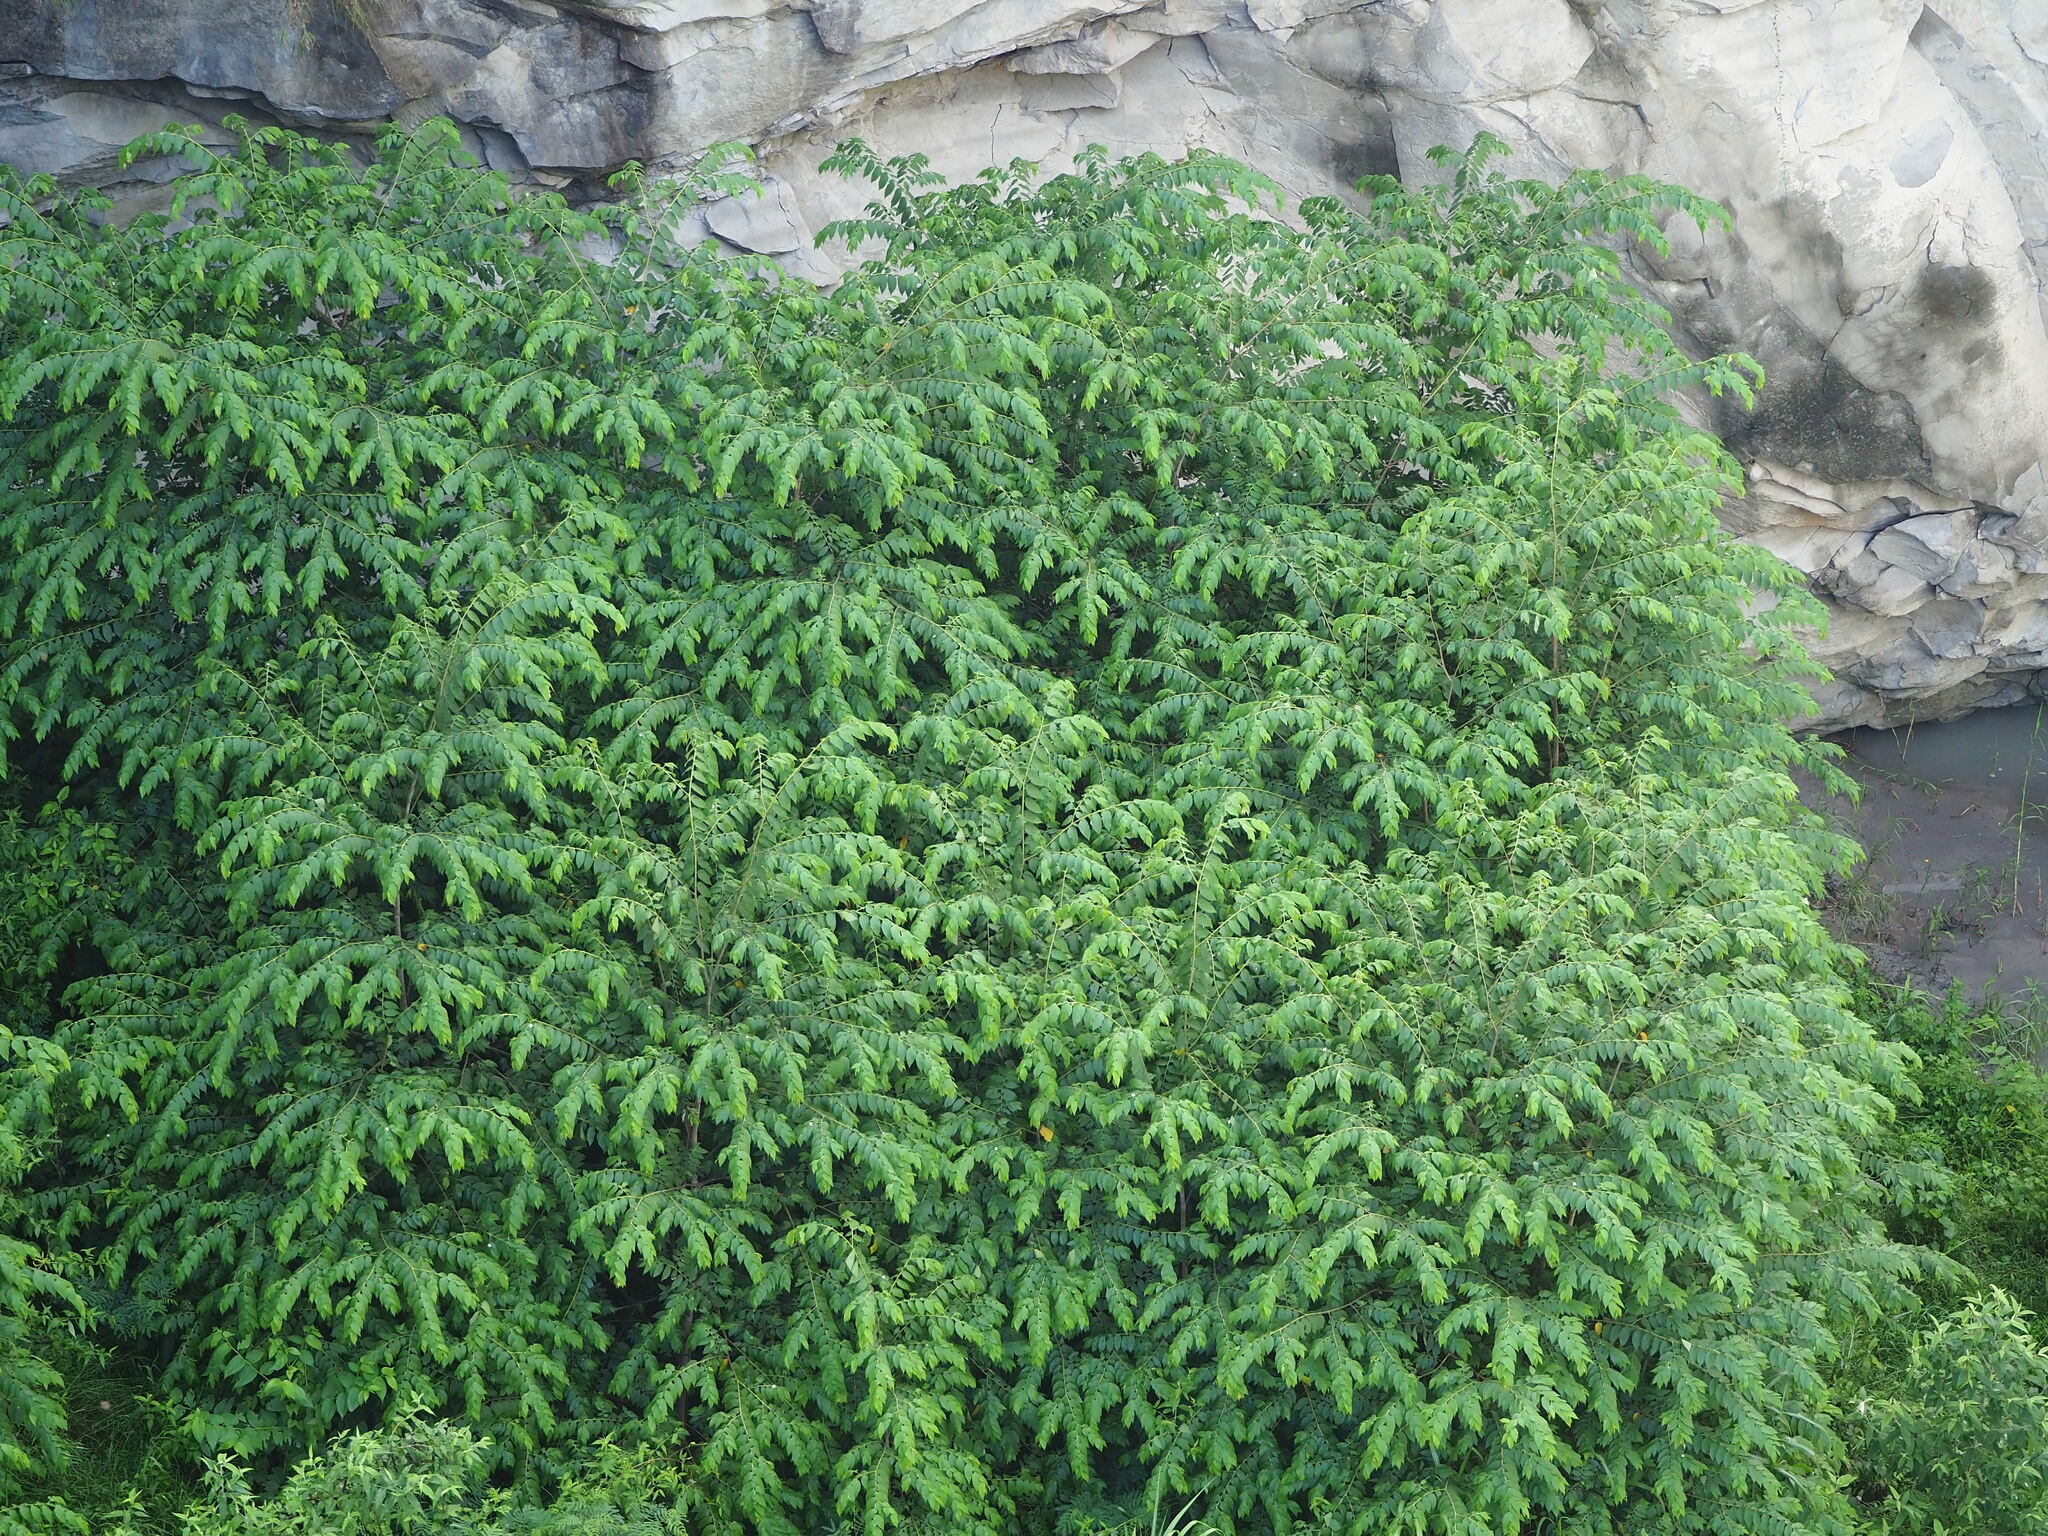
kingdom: Plantae
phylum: Tracheophyta
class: Magnoliopsida
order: Malvales
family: Muntingiaceae
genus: Muntingia
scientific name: Muntingia calabura
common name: Strawberrytree
